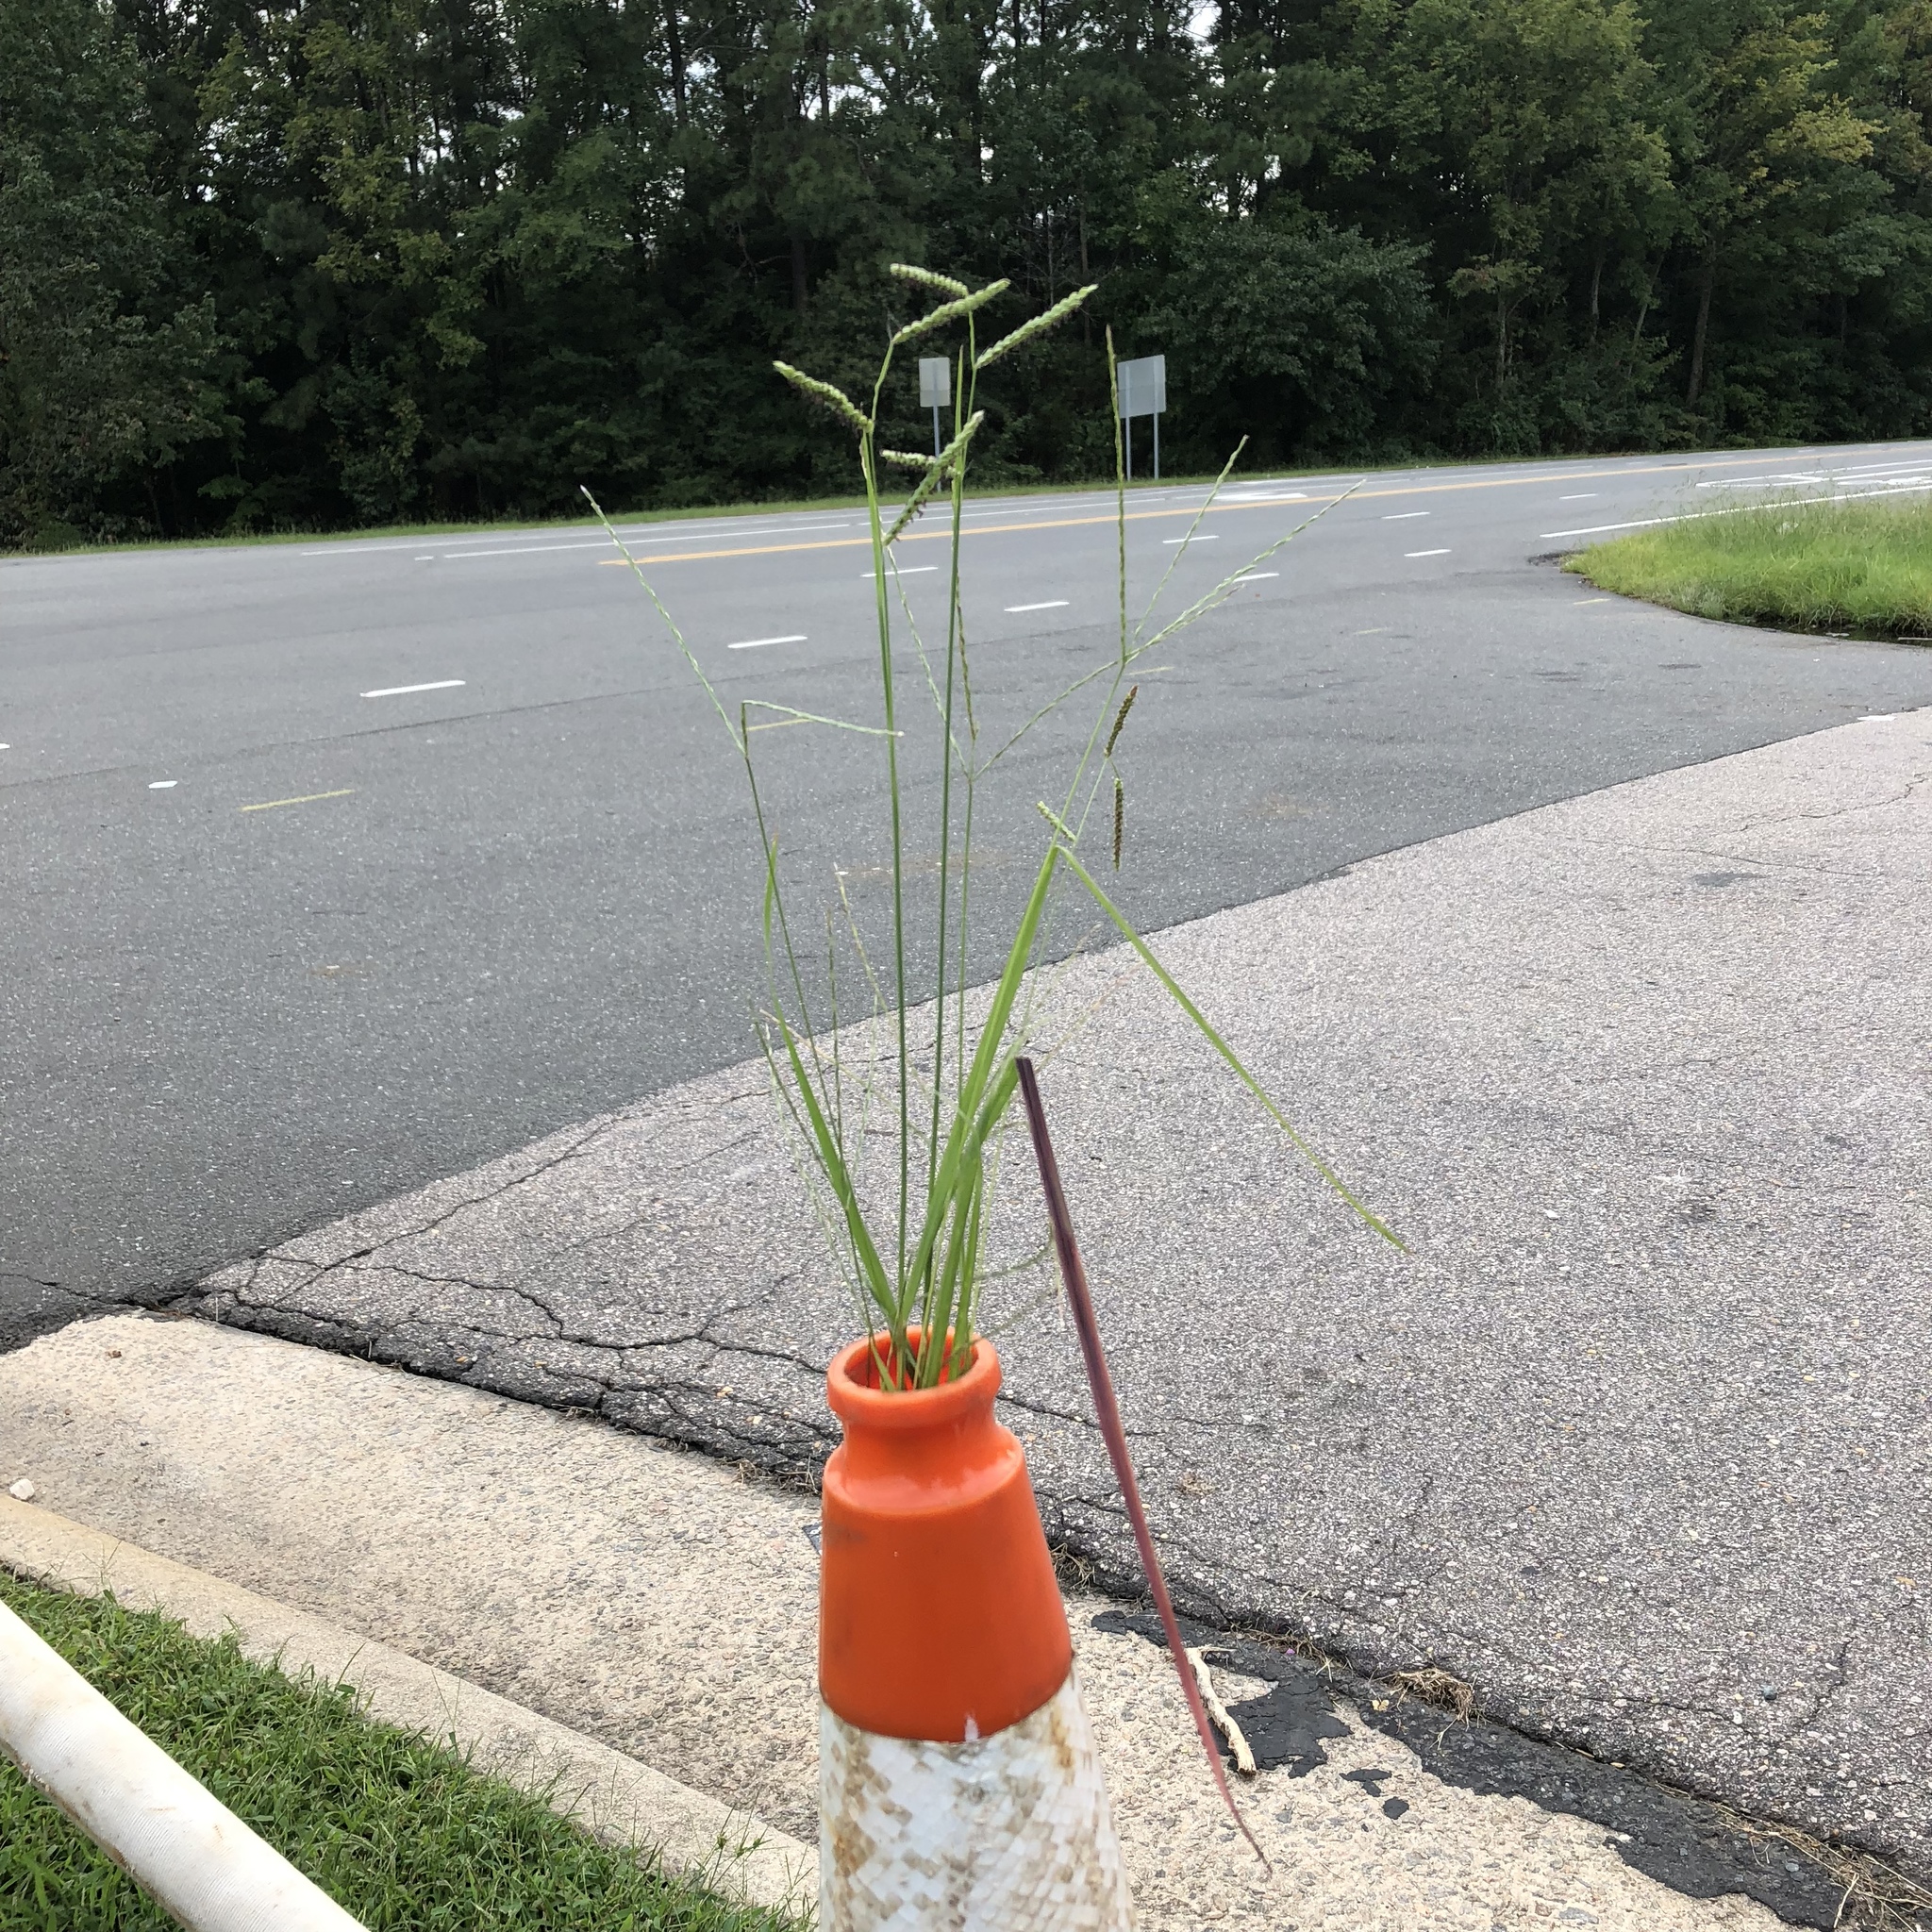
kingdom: Plantae
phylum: Tracheophyta
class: Liliopsida
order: Poales
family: Poaceae
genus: Paspalum
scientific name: Paspalum dilatatum
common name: Dallisgrass
